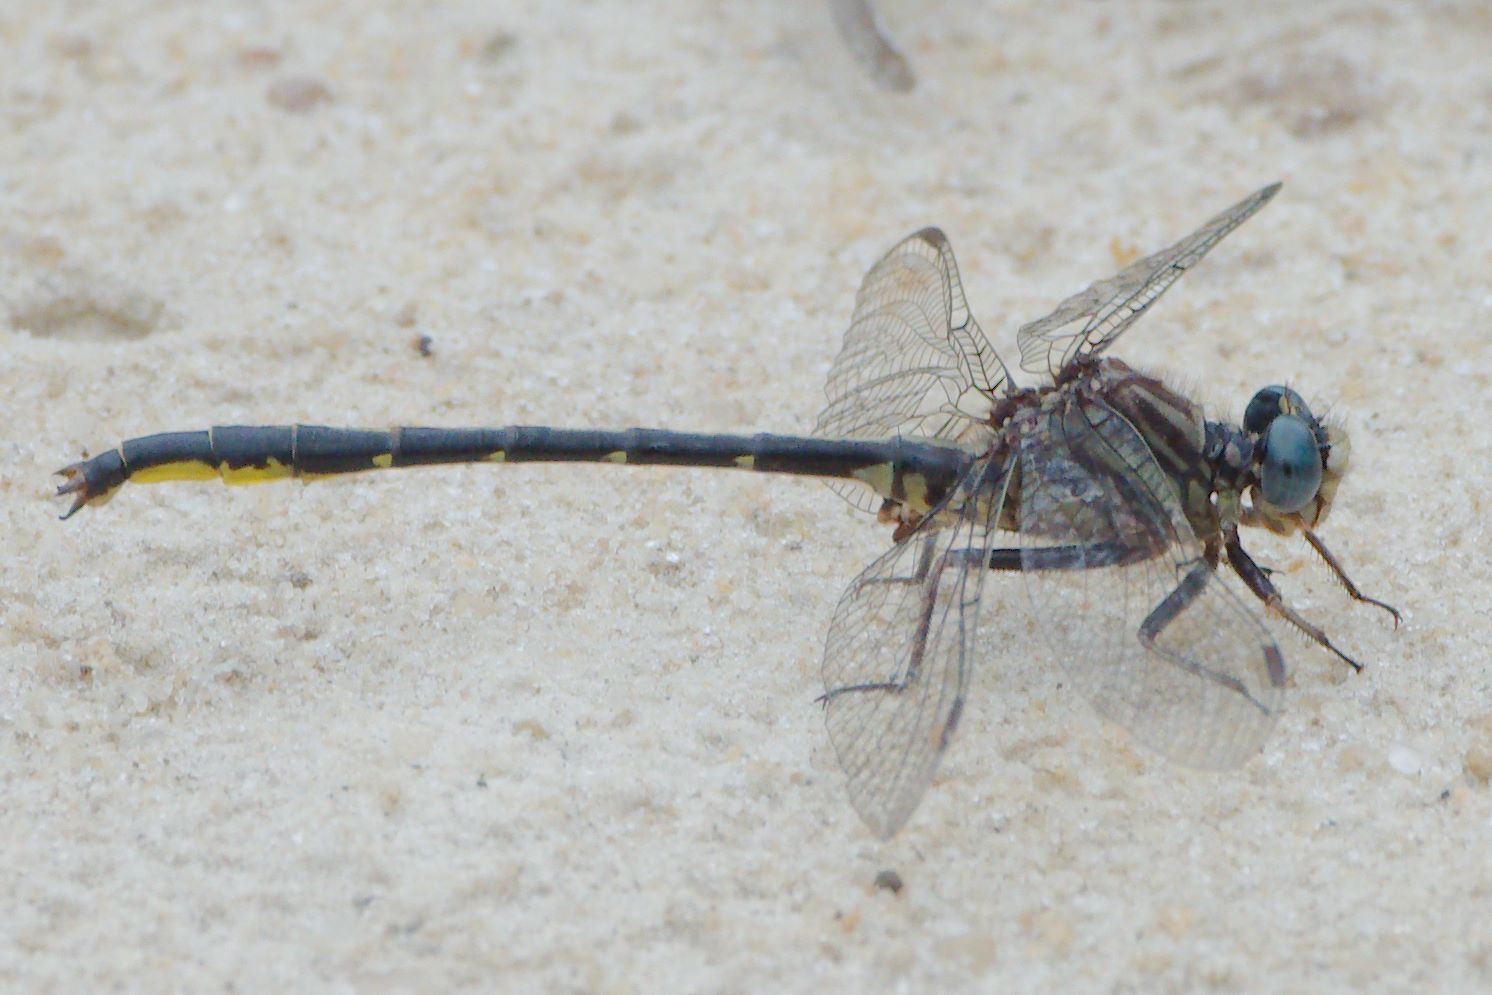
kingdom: Animalia
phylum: Arthropoda
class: Insecta
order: Odonata
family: Gomphidae
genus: Phanogomphus
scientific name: Phanogomphus westfalli
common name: Westfall’s clubtail
